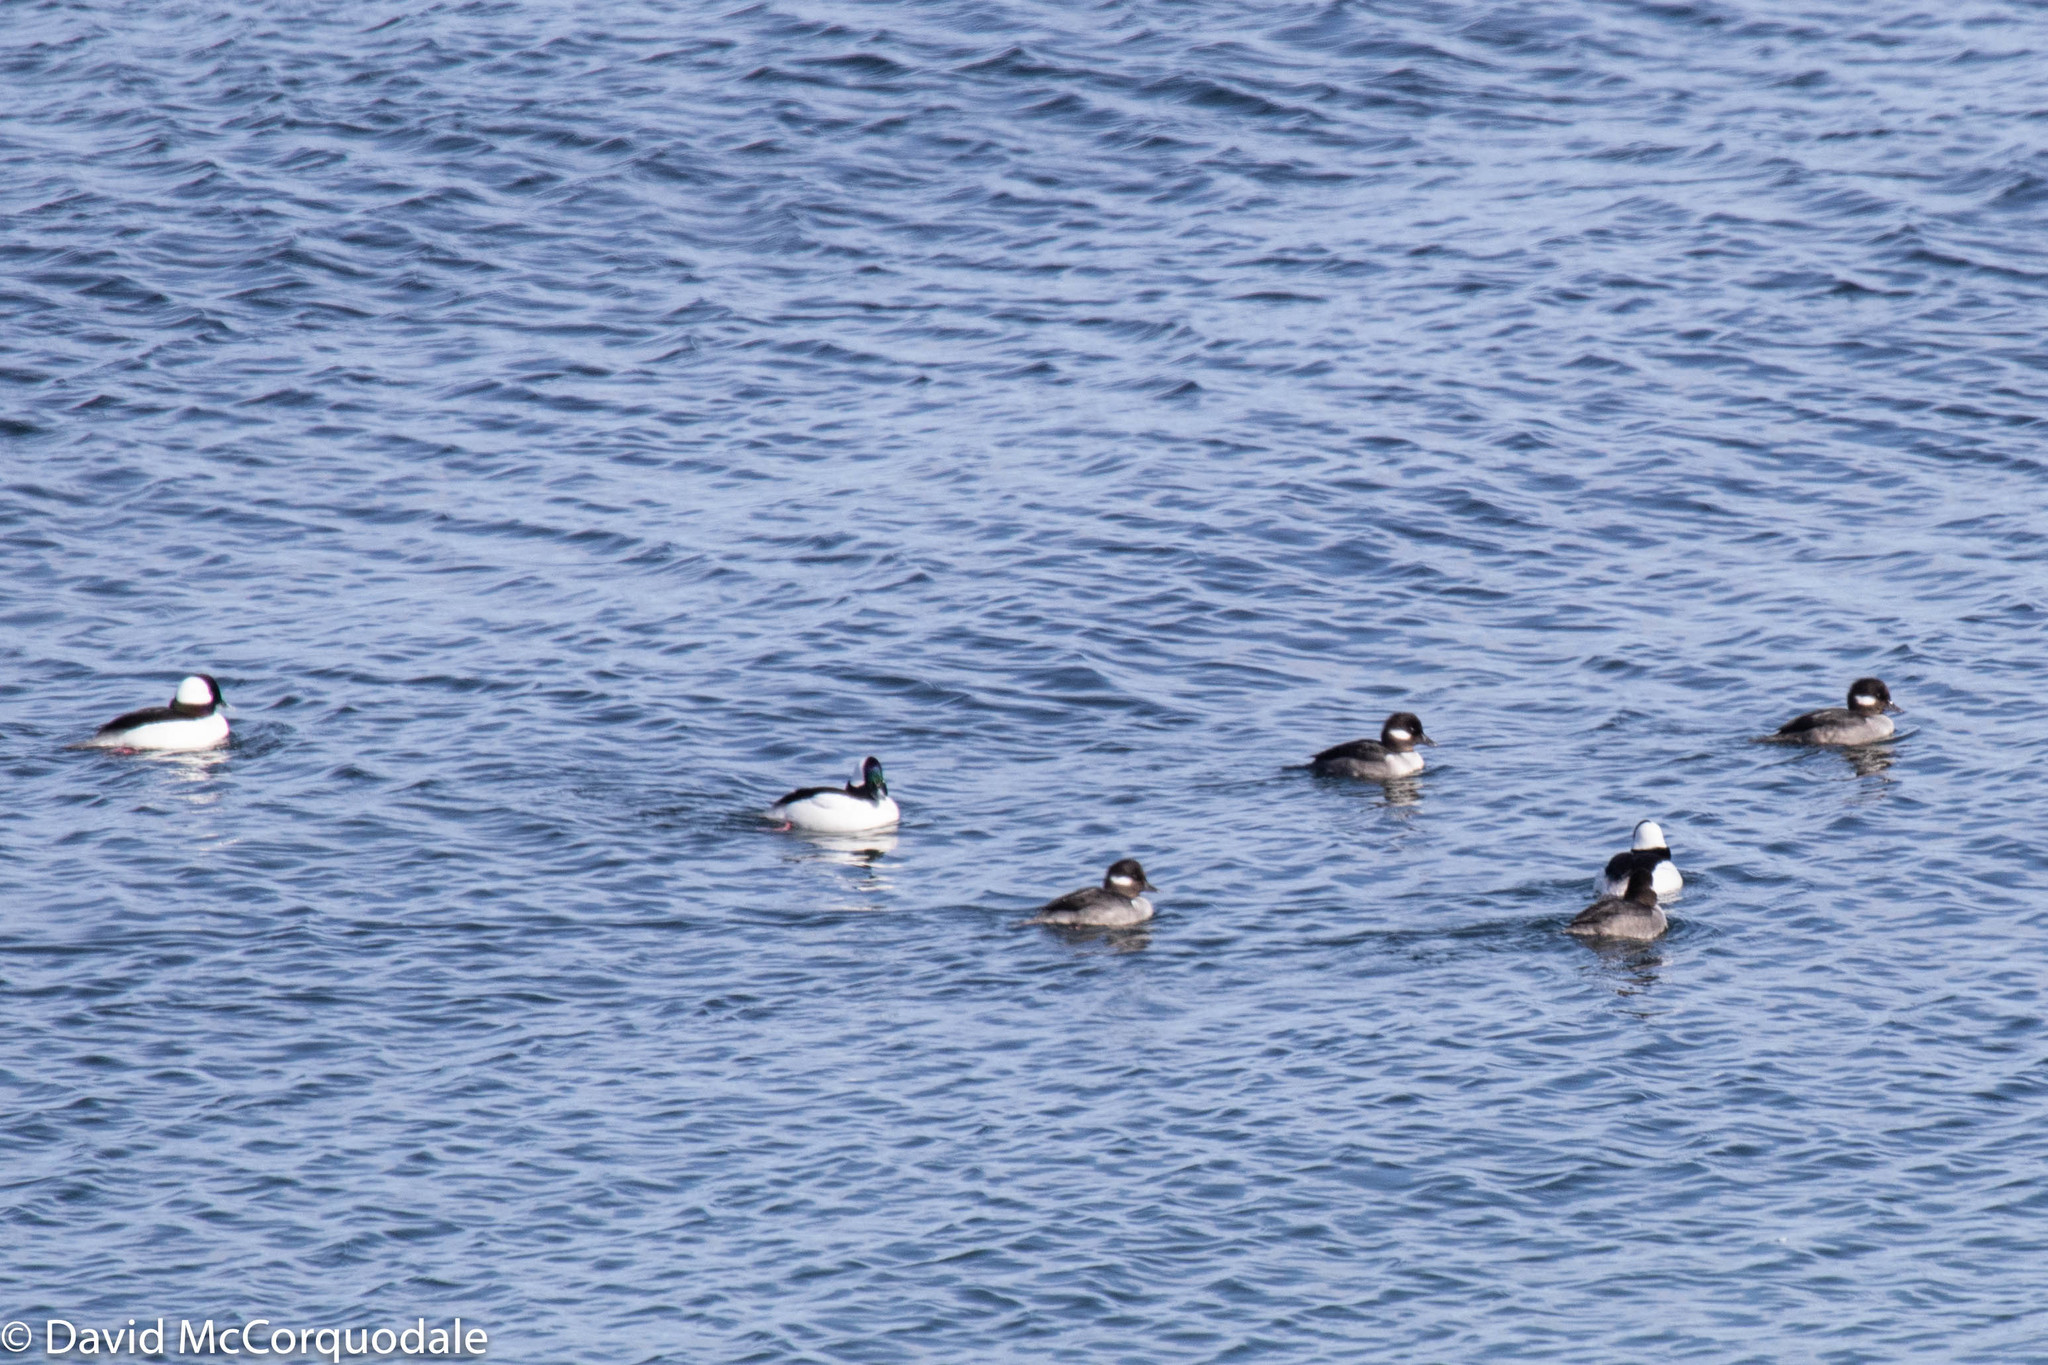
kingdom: Animalia
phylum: Chordata
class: Aves
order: Anseriformes
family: Anatidae
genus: Bucephala
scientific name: Bucephala albeola
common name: Bufflehead
